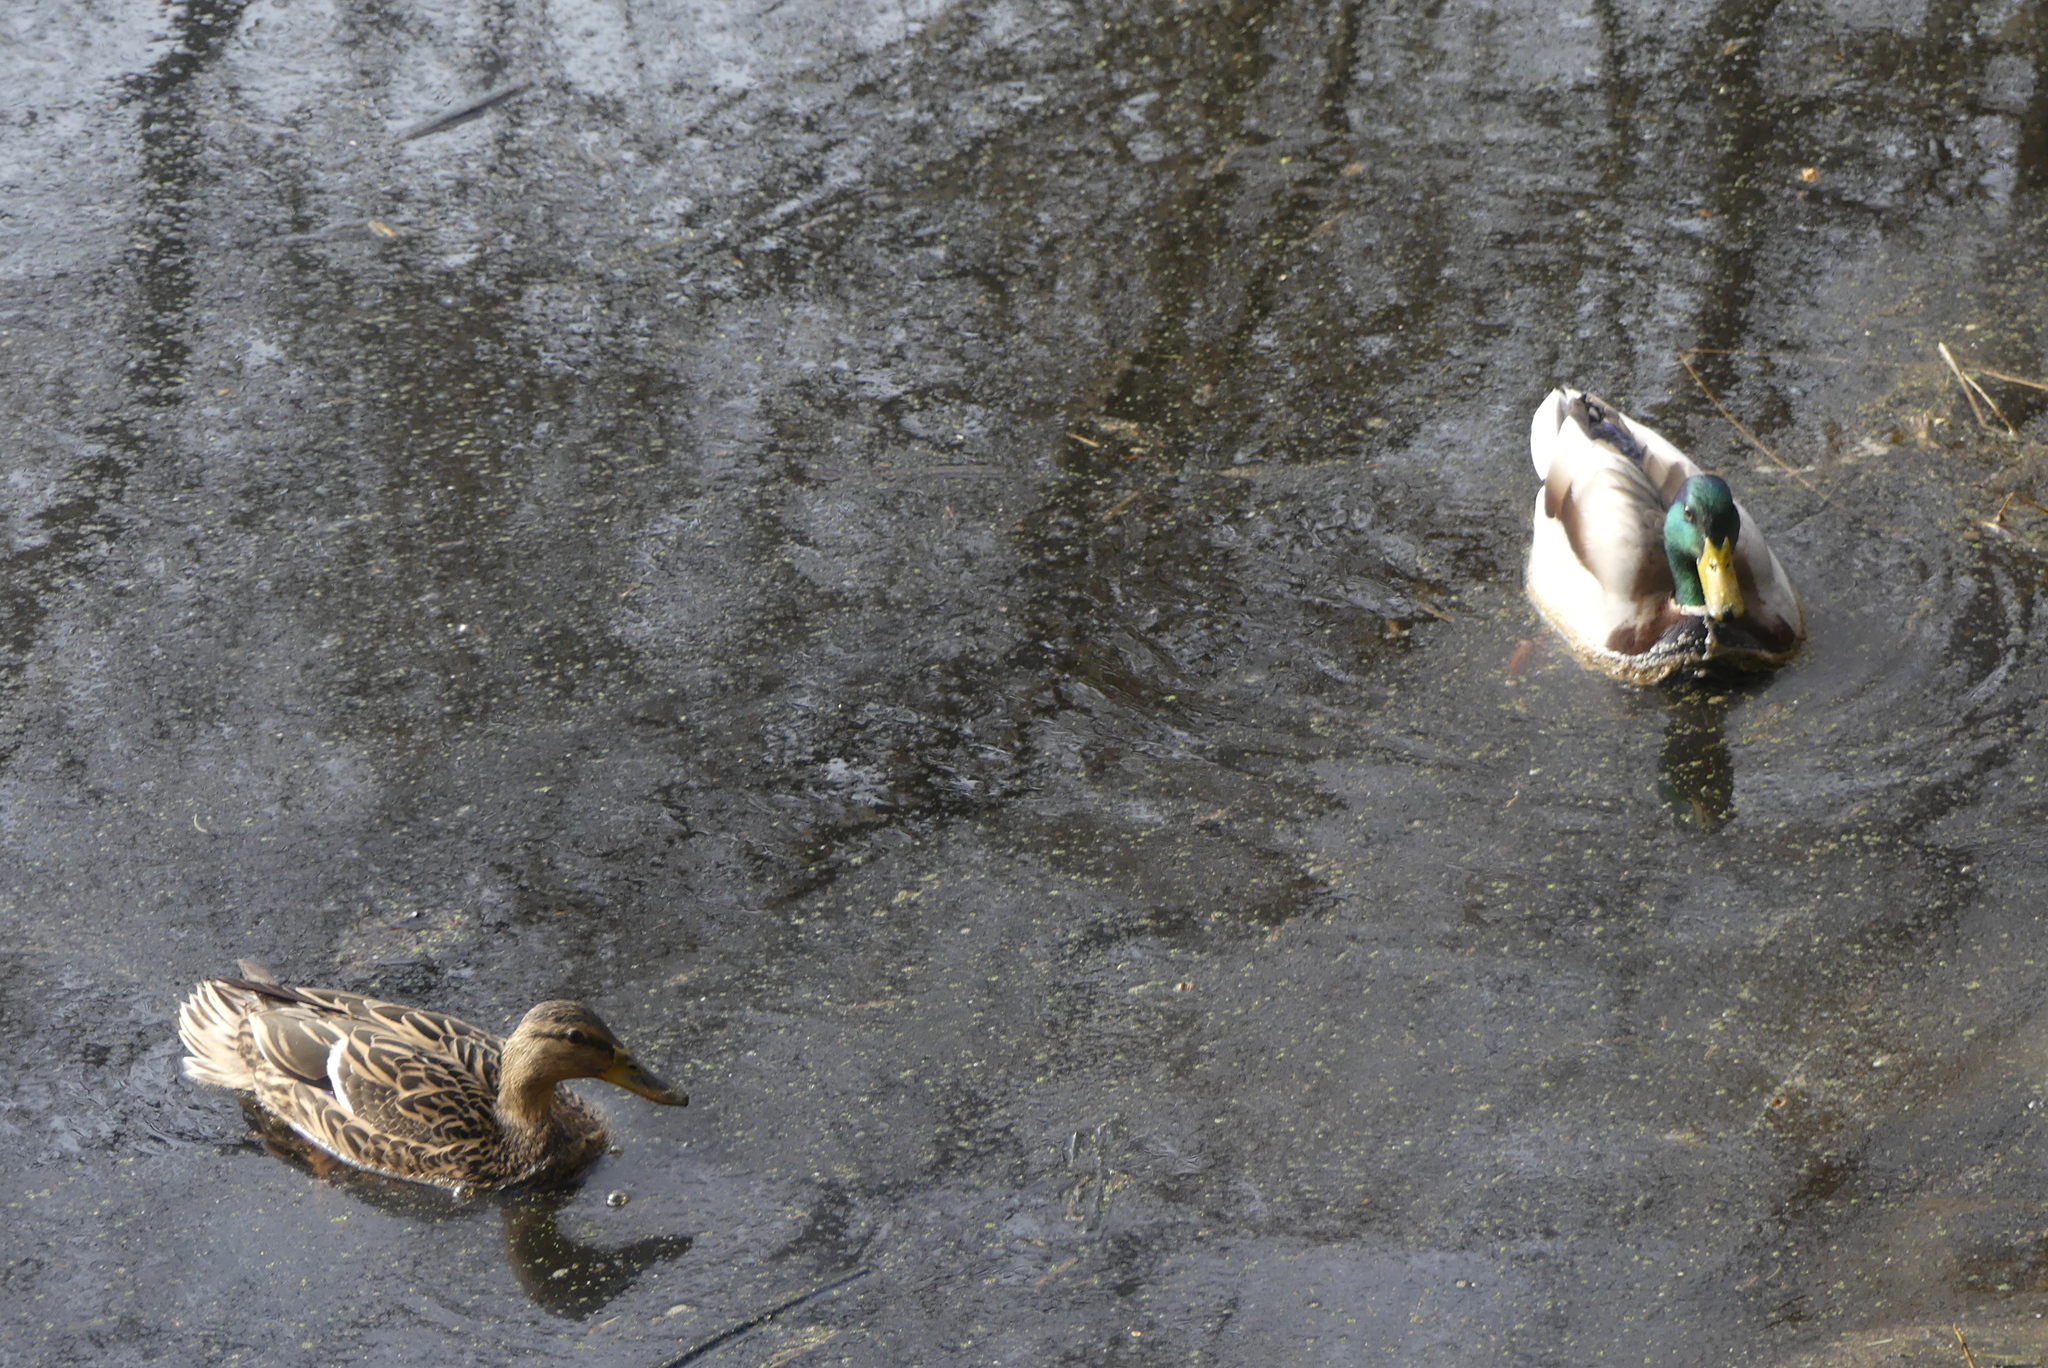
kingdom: Animalia
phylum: Chordata
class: Aves
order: Anseriformes
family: Anatidae
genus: Anas
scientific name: Anas platyrhynchos
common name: Mallard
